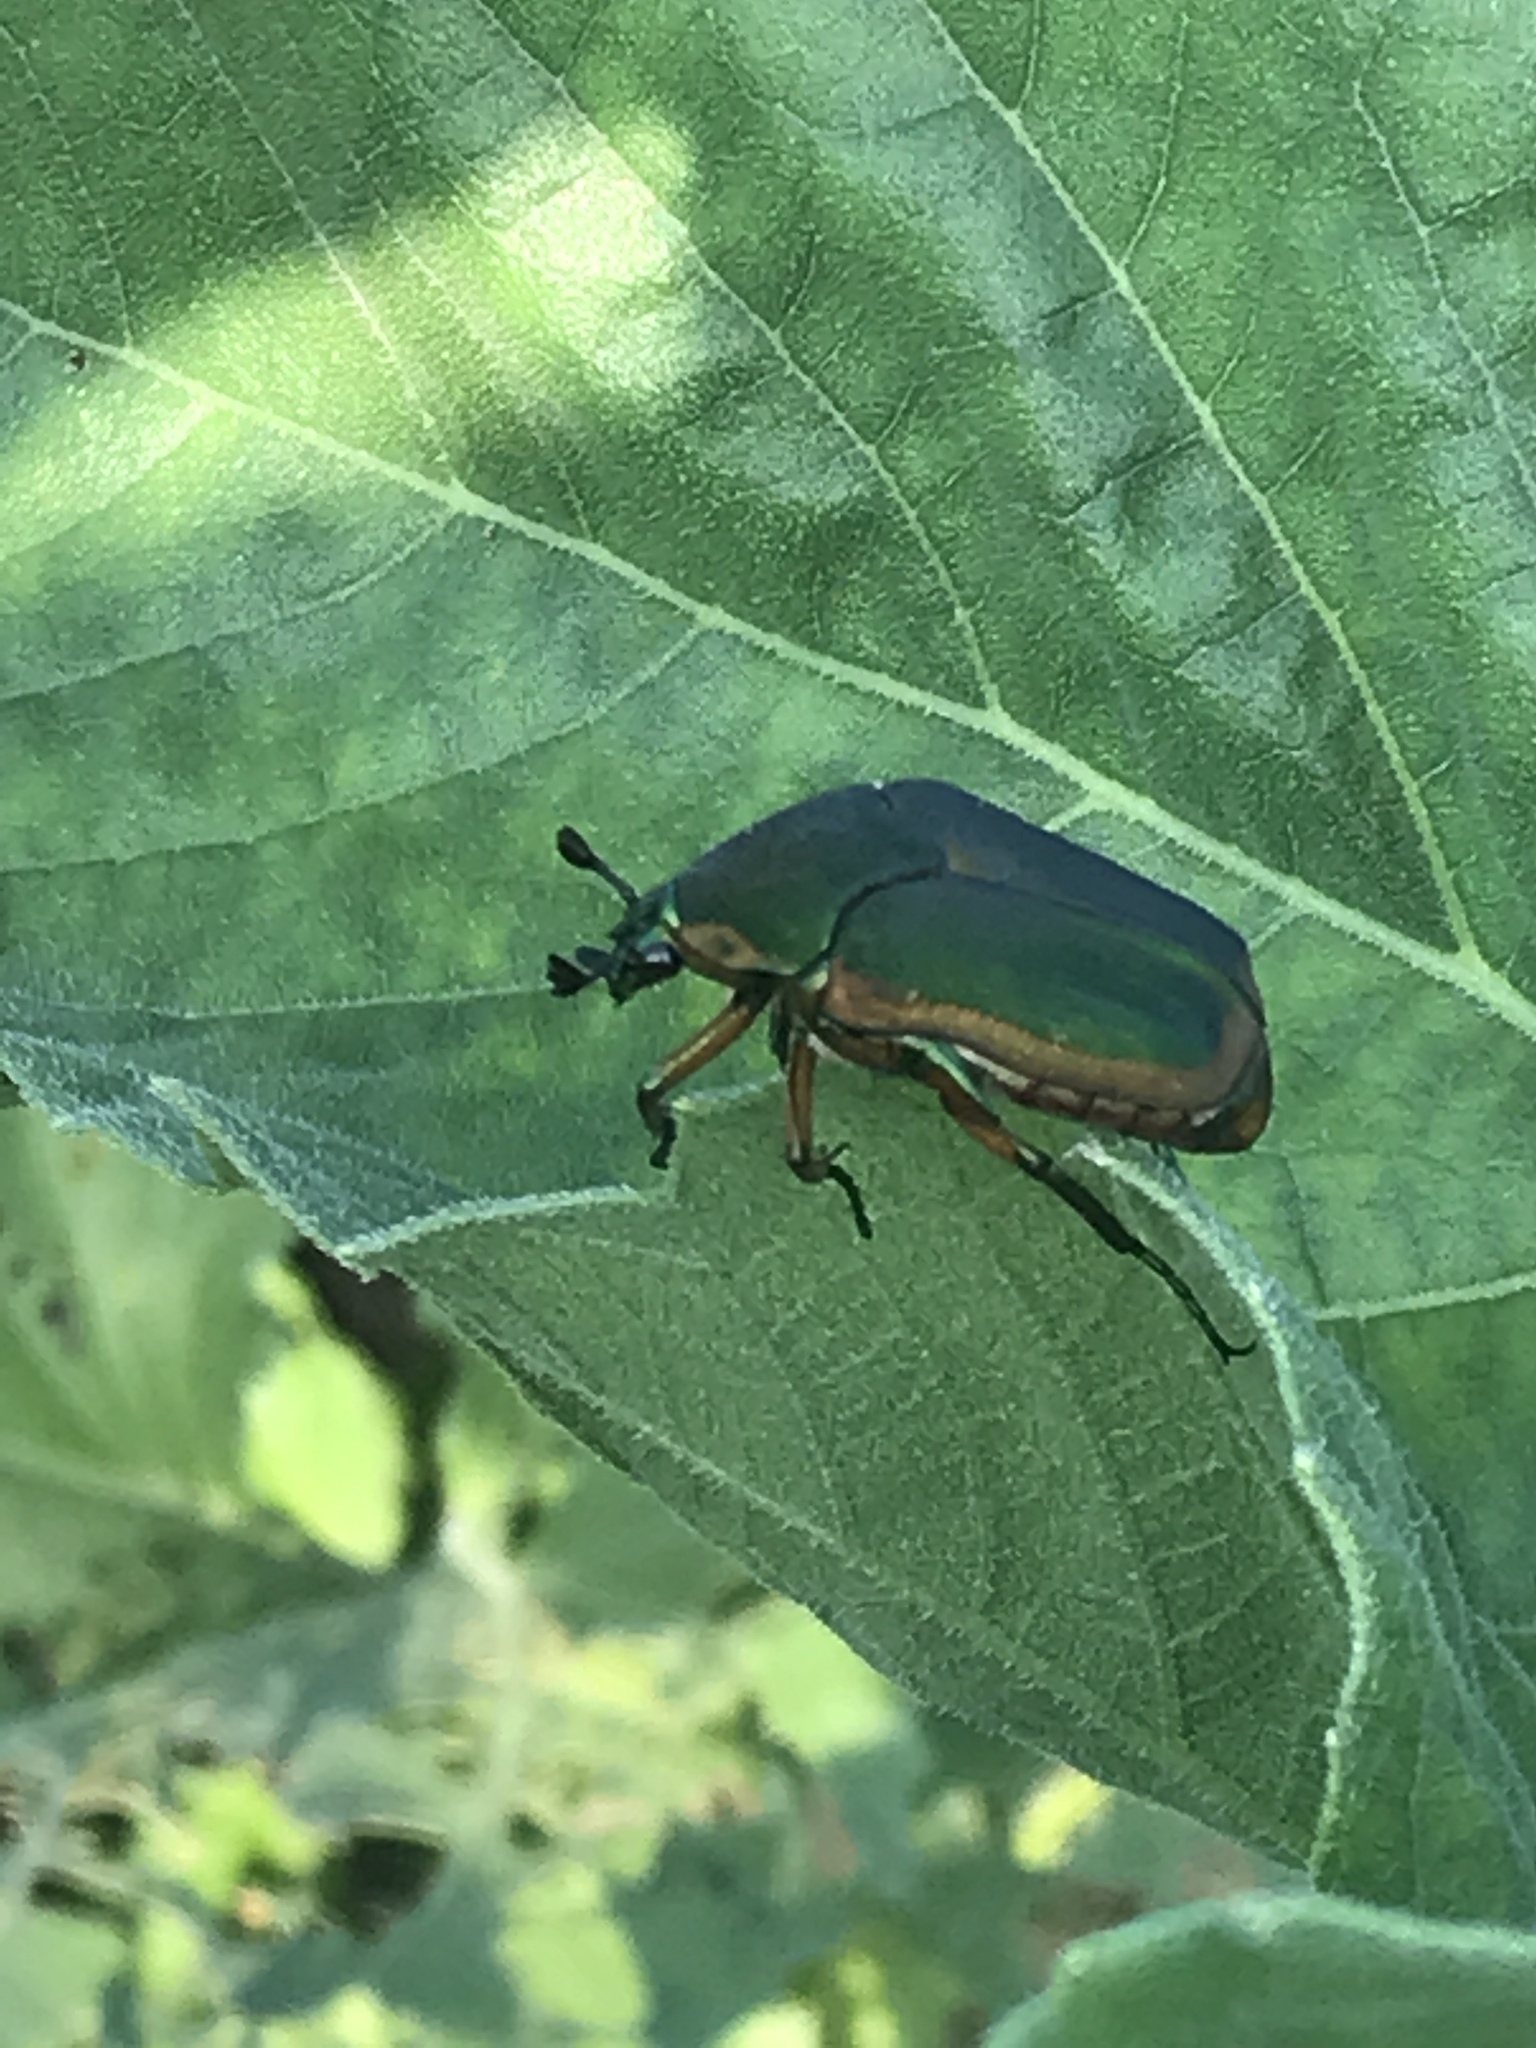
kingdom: Animalia
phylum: Arthropoda
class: Insecta
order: Coleoptera
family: Scarabaeidae
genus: Cotinis
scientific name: Cotinis nitida
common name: Common green june beetle
